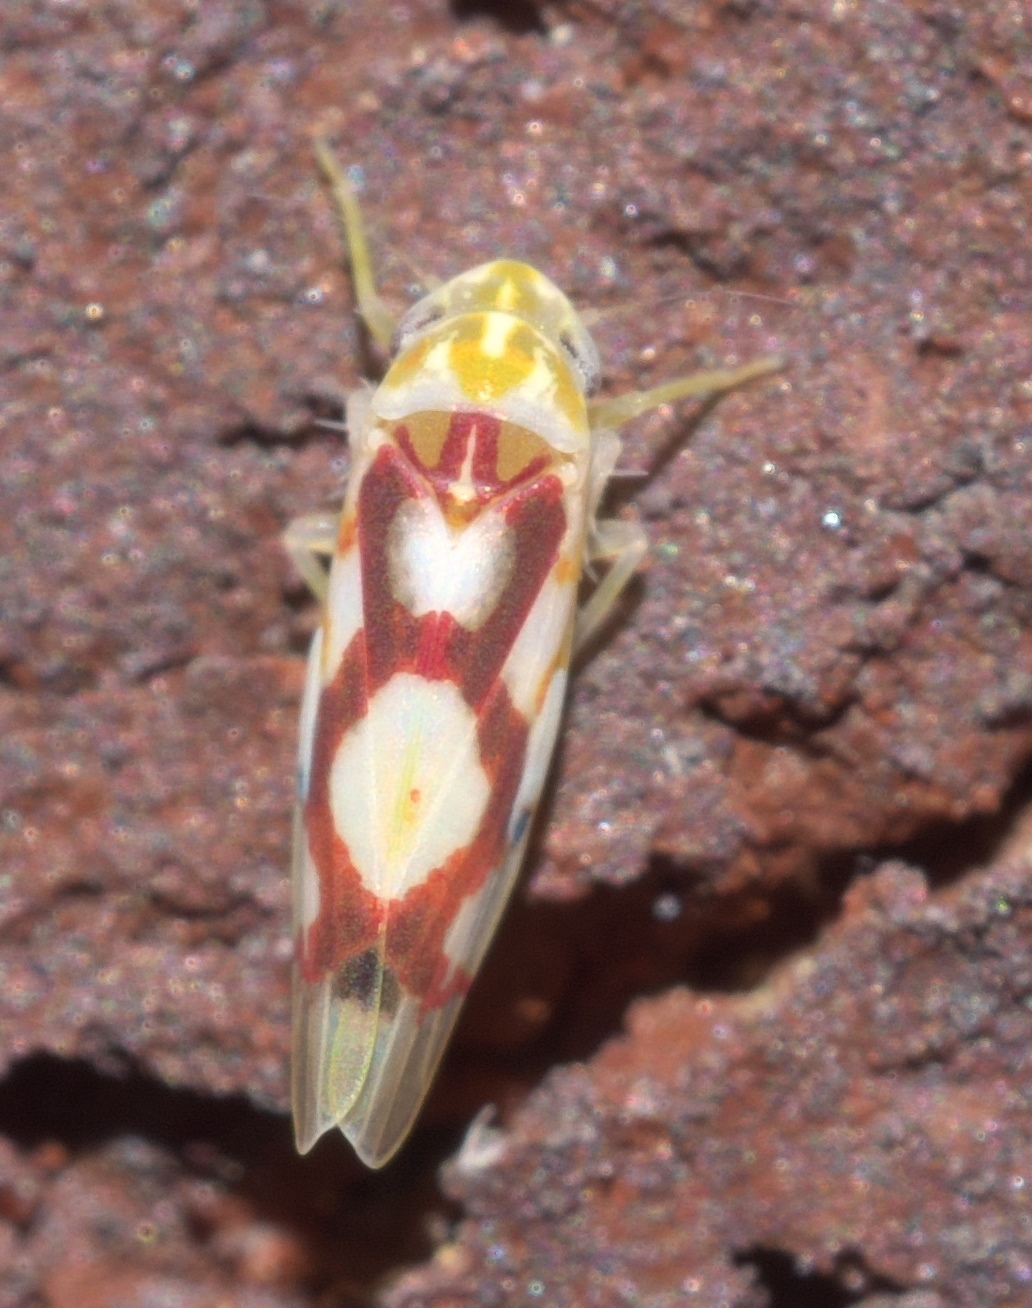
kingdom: Animalia
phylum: Arthropoda
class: Insecta
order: Hemiptera
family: Cicadellidae
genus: Eratoneura
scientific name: Eratoneura ligata
